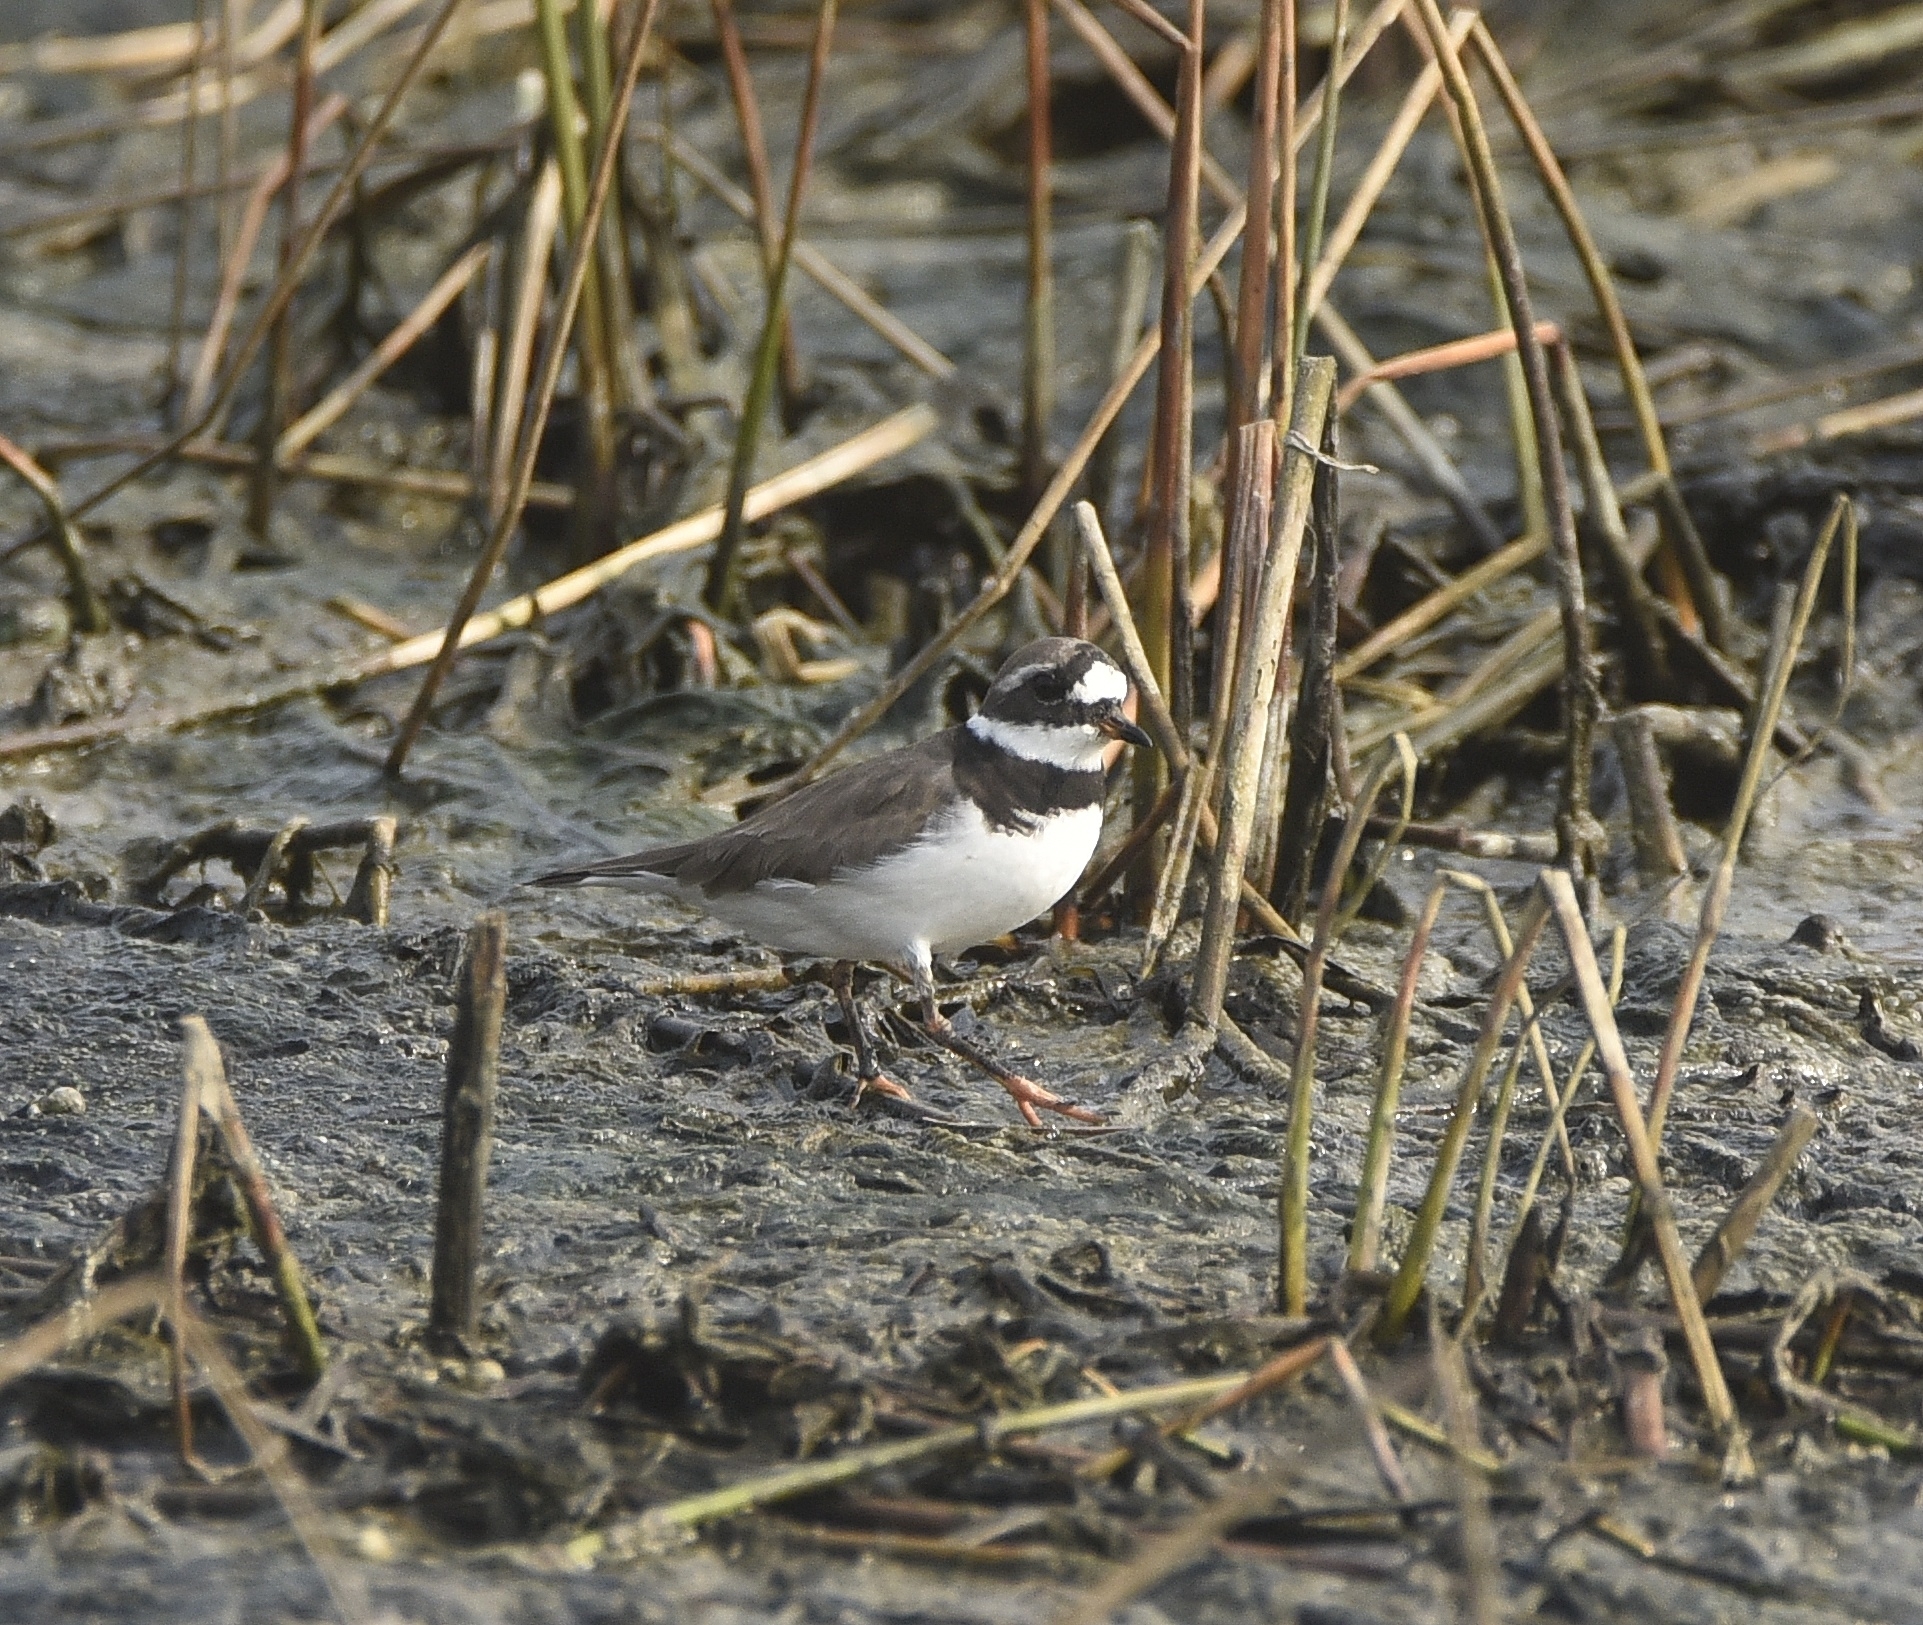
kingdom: Animalia
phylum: Chordata
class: Aves
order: Charadriiformes
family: Charadriidae
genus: Charadrius
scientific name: Charadrius hiaticula
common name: Common ringed plover
